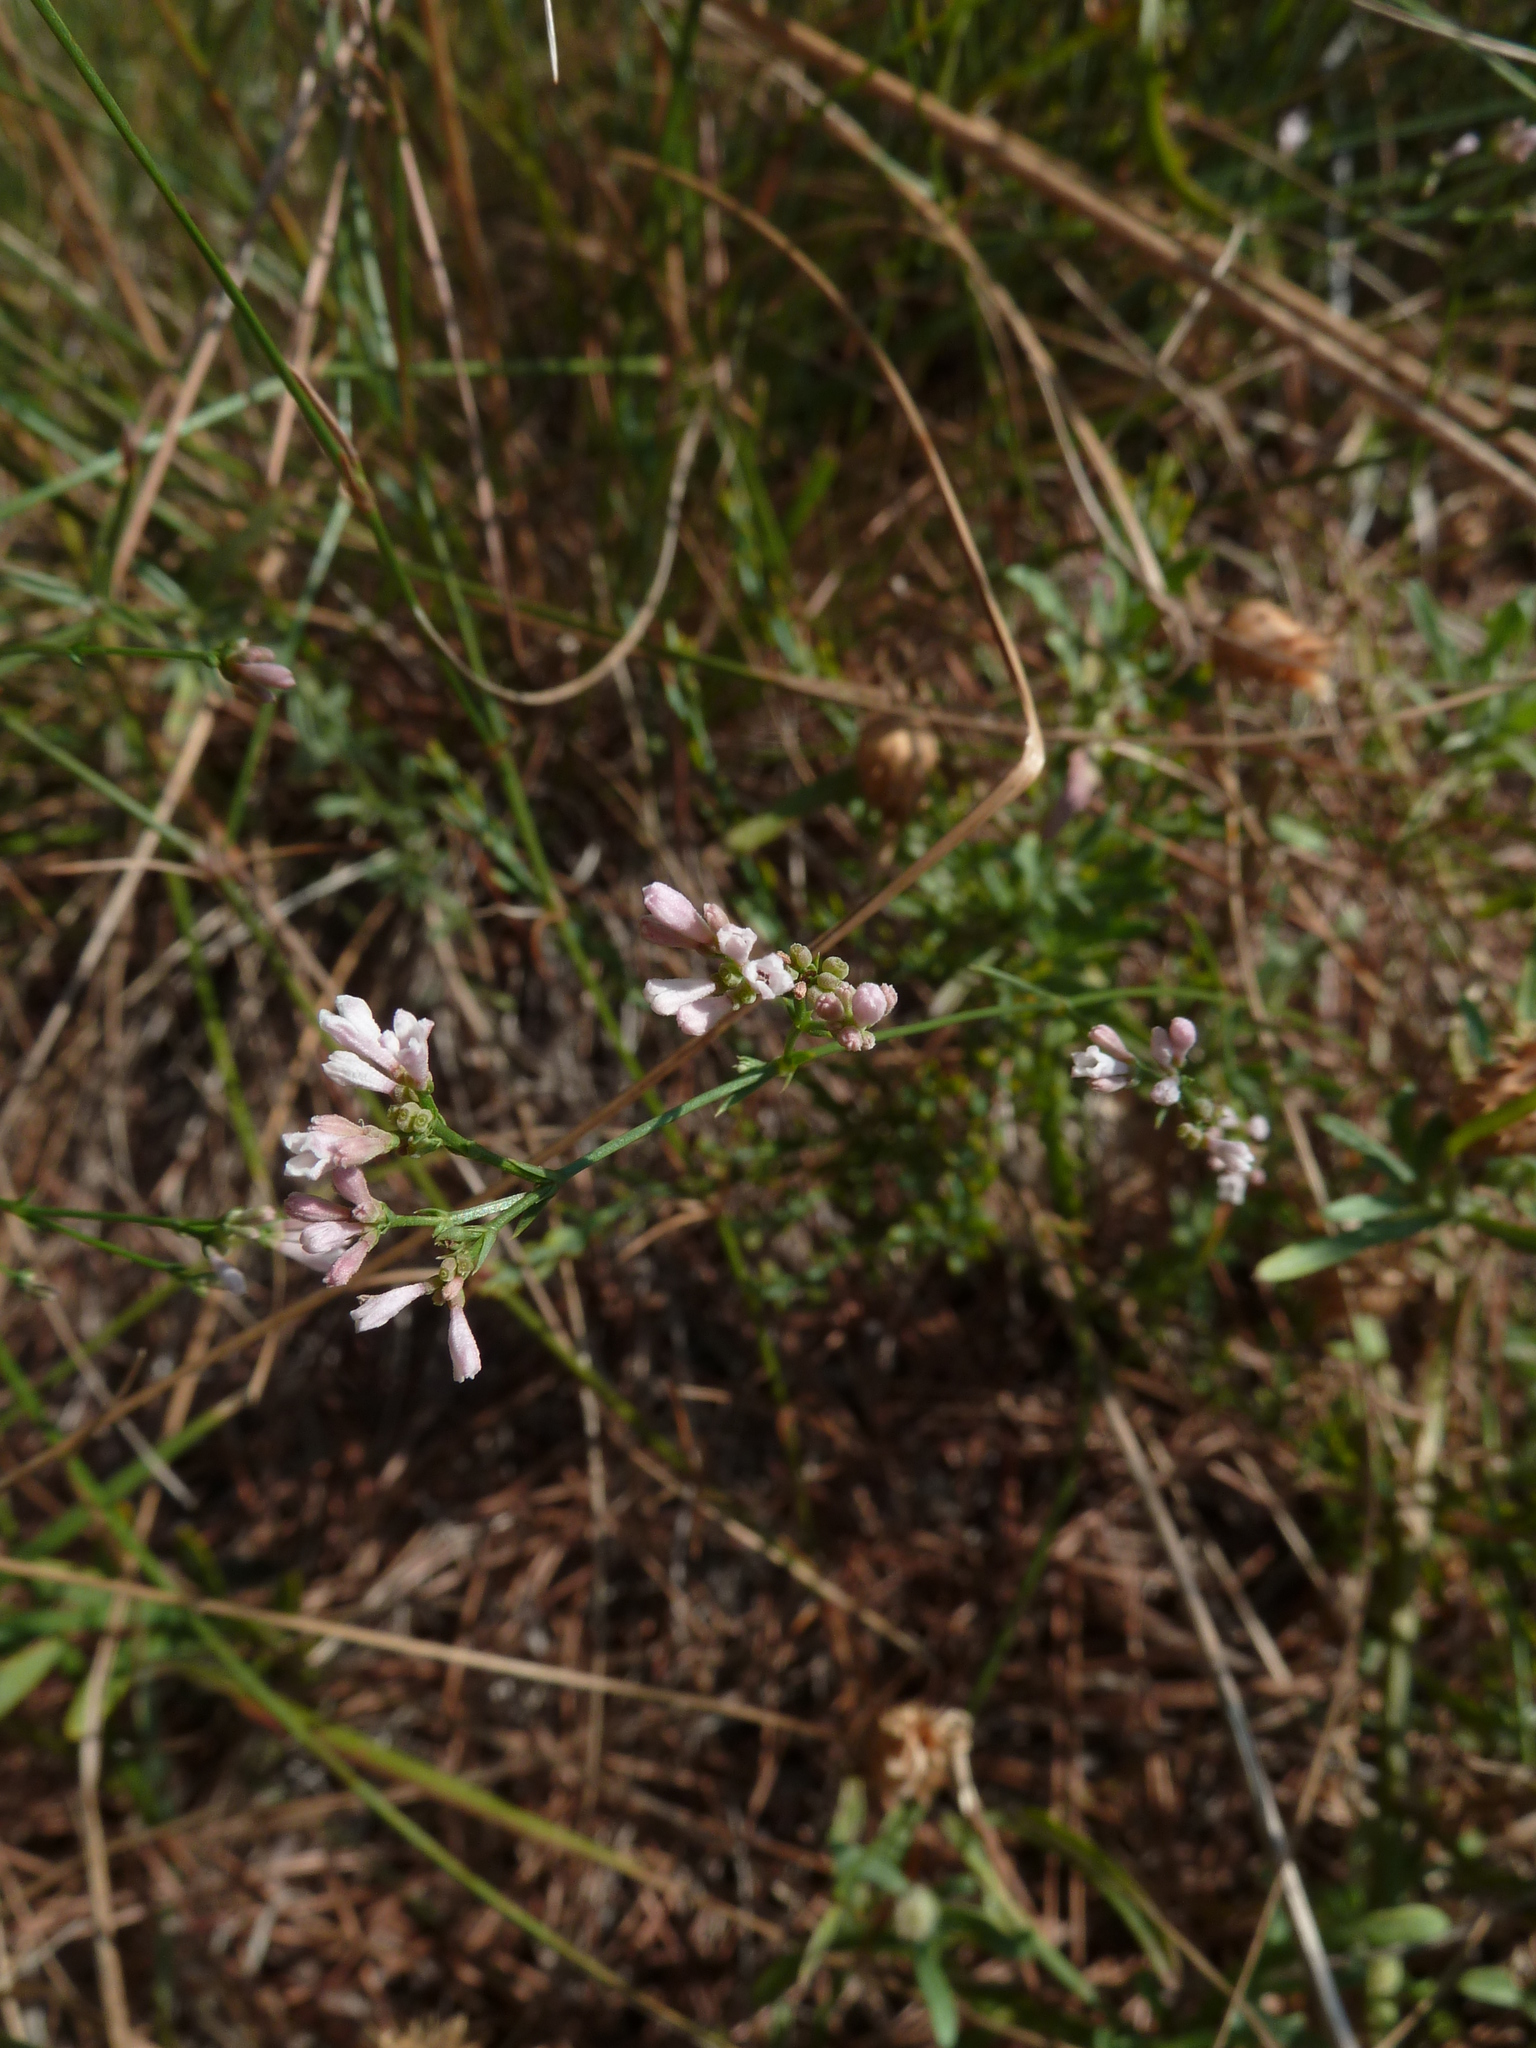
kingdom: Plantae
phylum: Tracheophyta
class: Magnoliopsida
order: Gentianales
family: Rubiaceae
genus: Cynanchica
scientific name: Cynanchica pyrenaica
